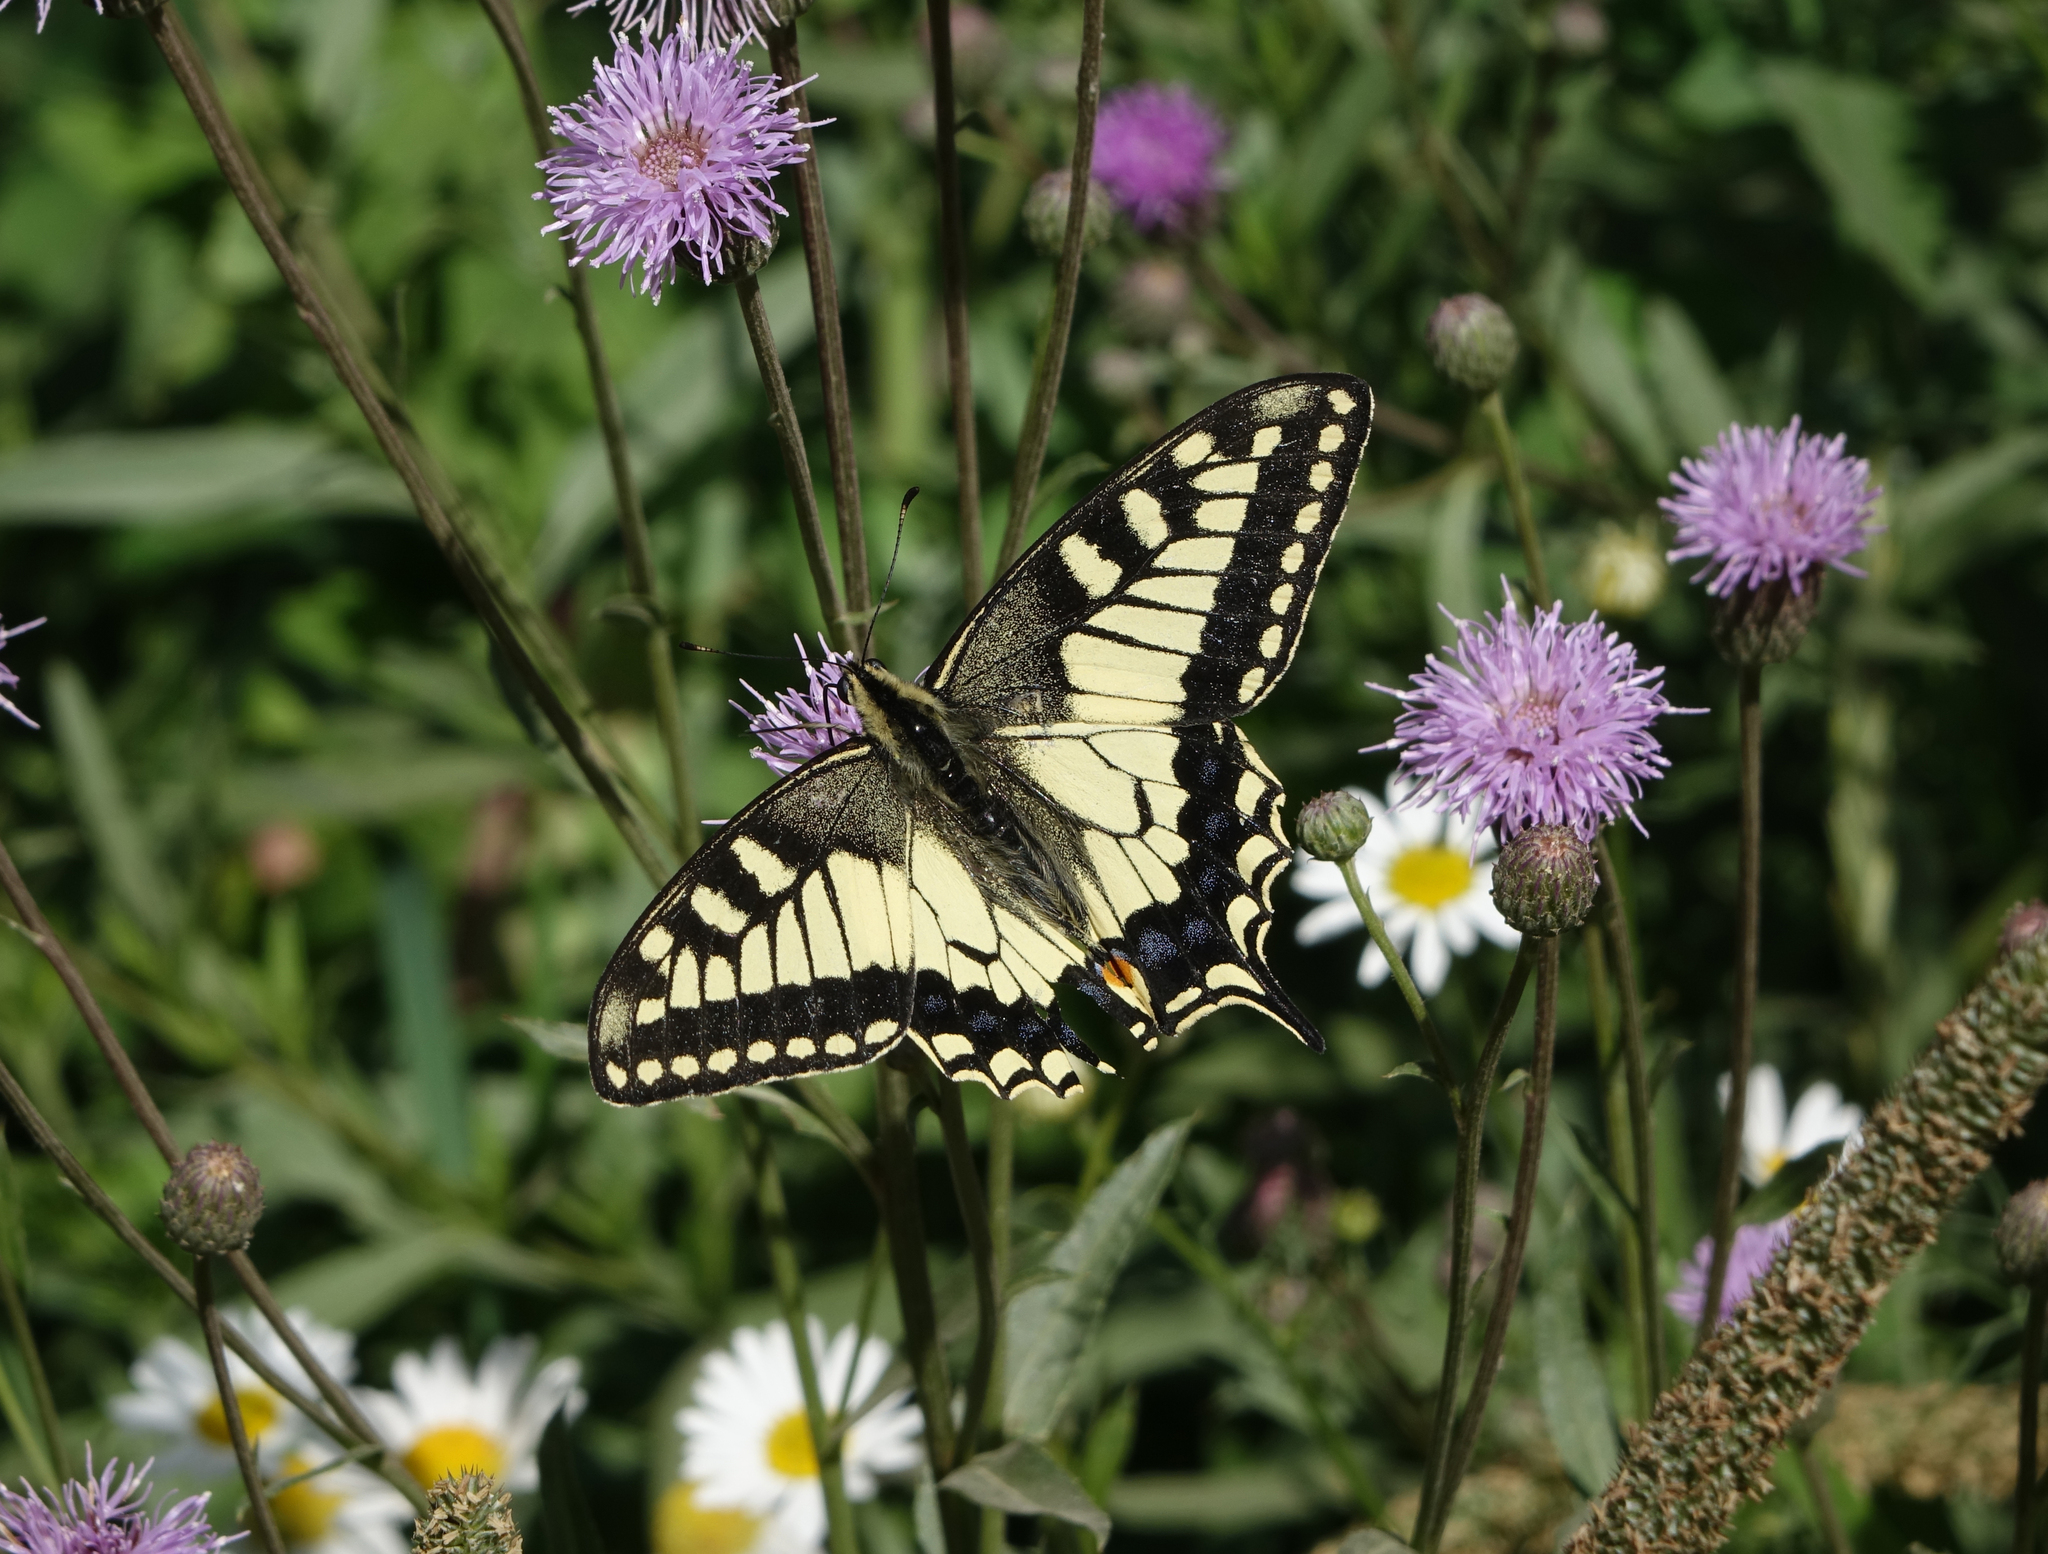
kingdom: Animalia
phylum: Arthropoda
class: Insecta
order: Lepidoptera
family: Papilionidae
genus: Papilio
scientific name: Papilio machaon
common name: Swallowtail
